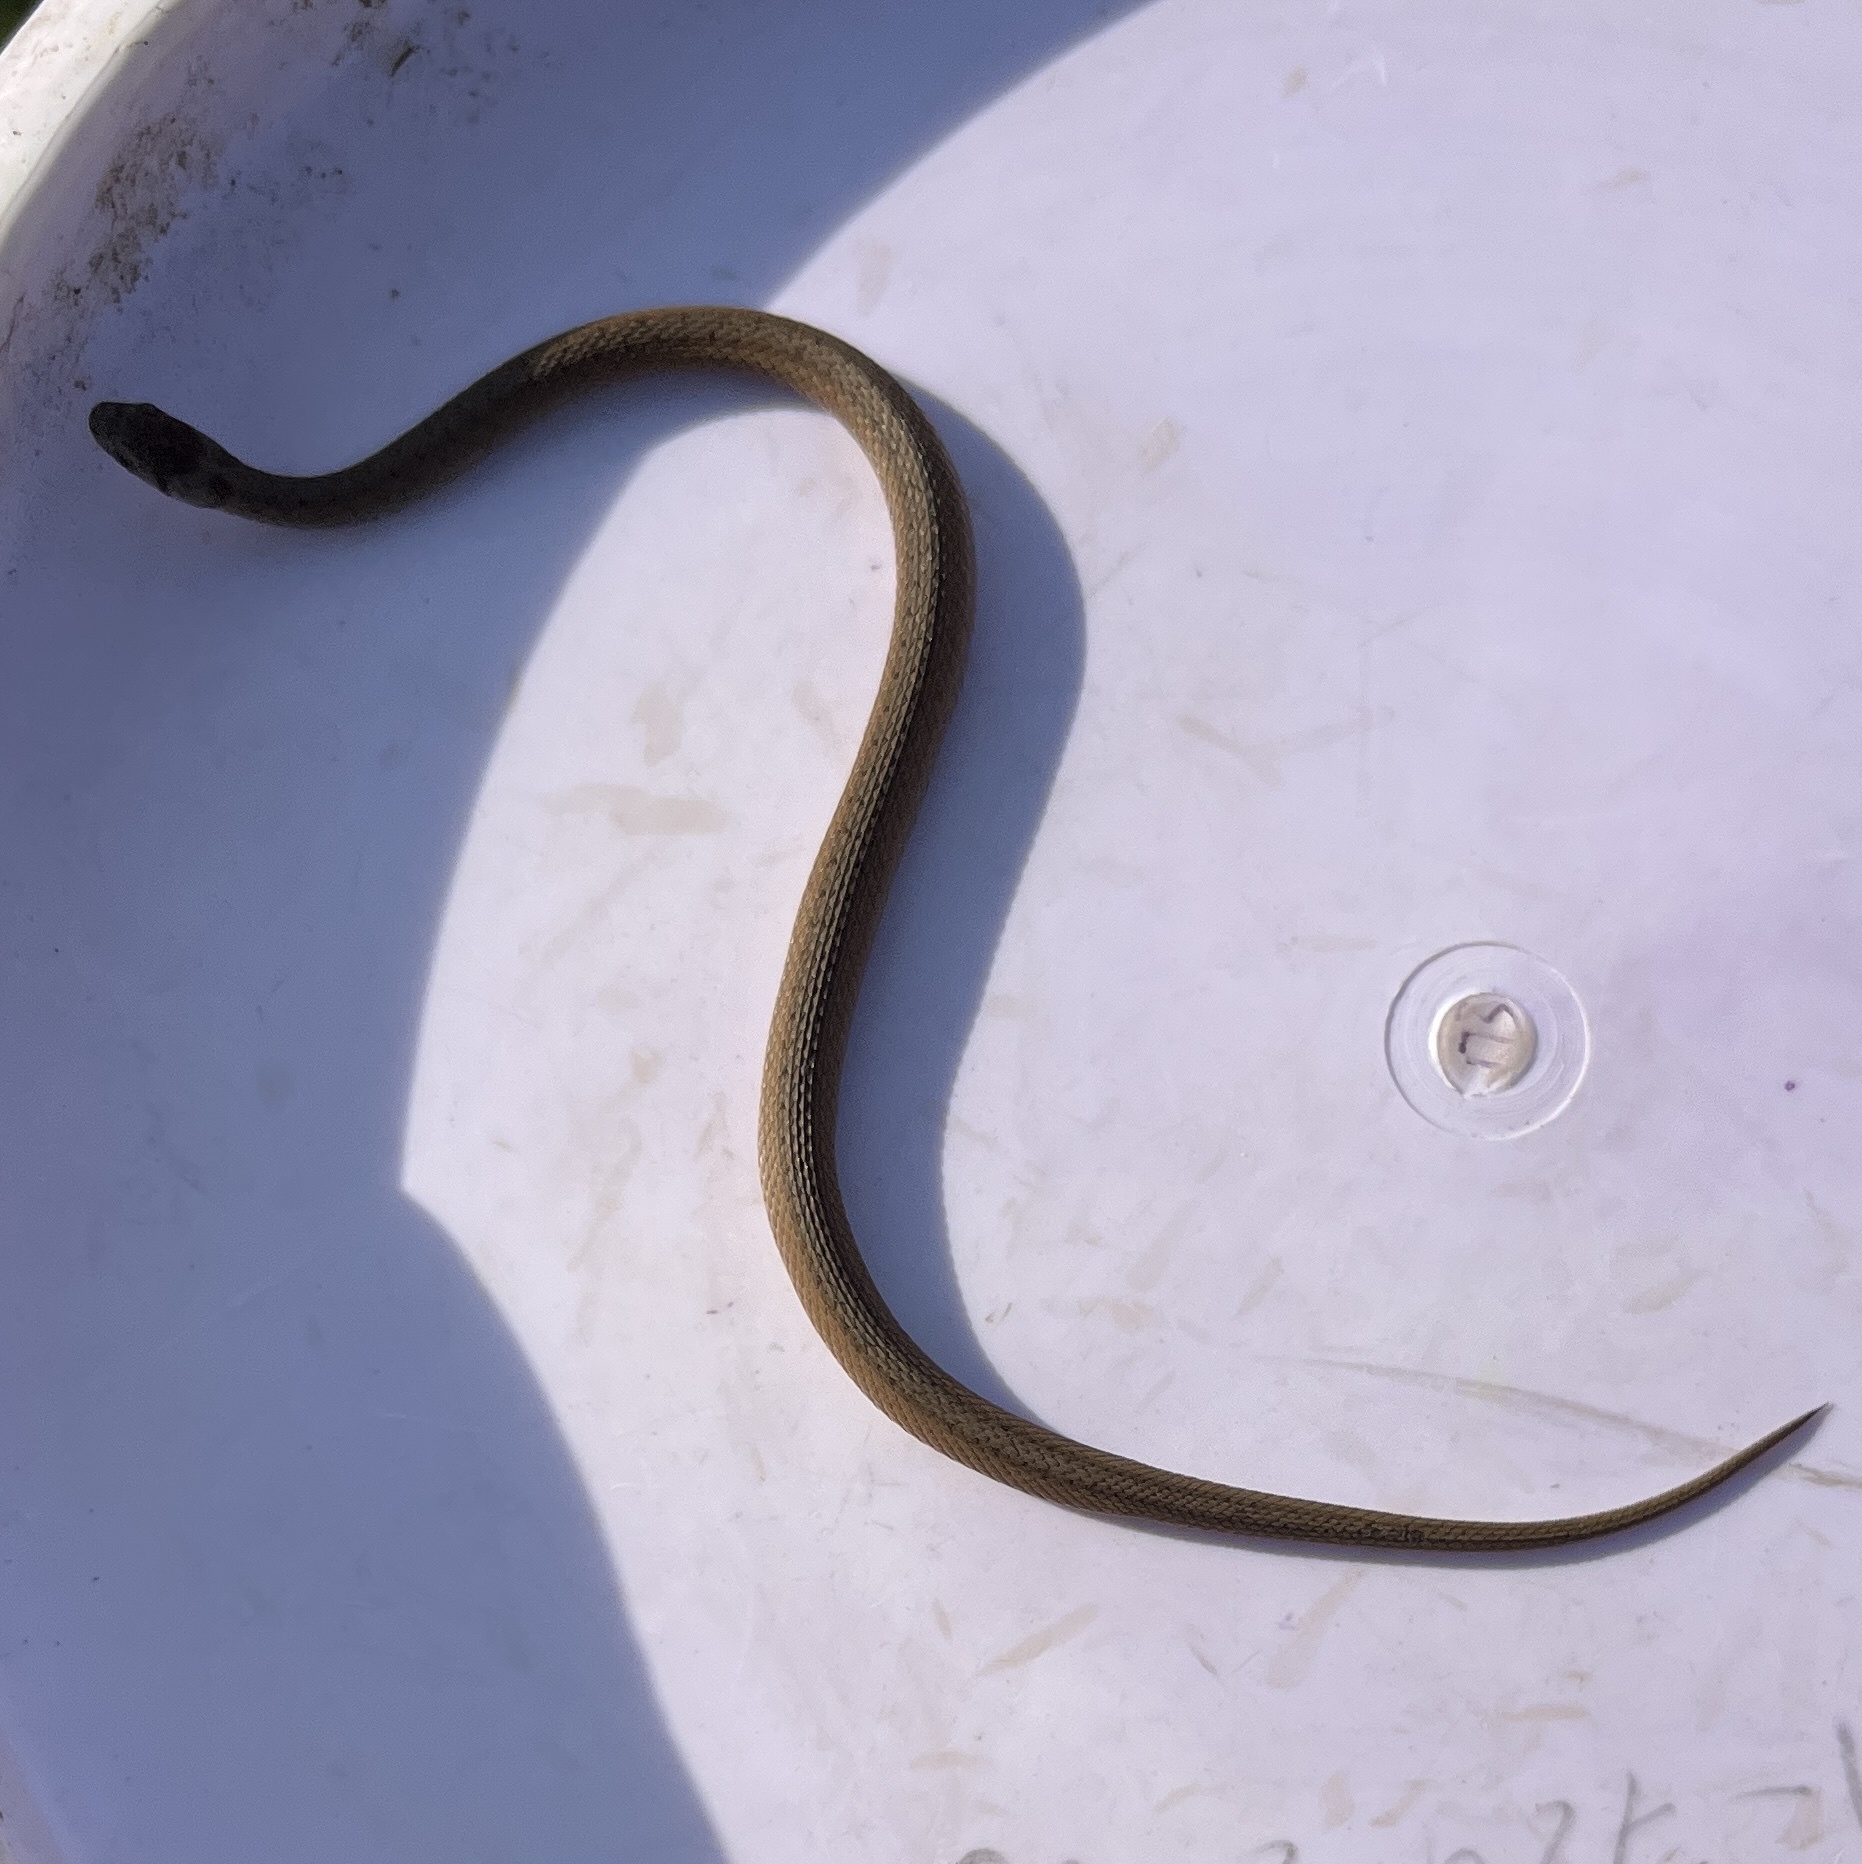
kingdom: Animalia
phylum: Chordata
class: Squamata
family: Colubridae
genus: Storeria
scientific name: Storeria dekayi
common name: (dekay’s) brown snake
